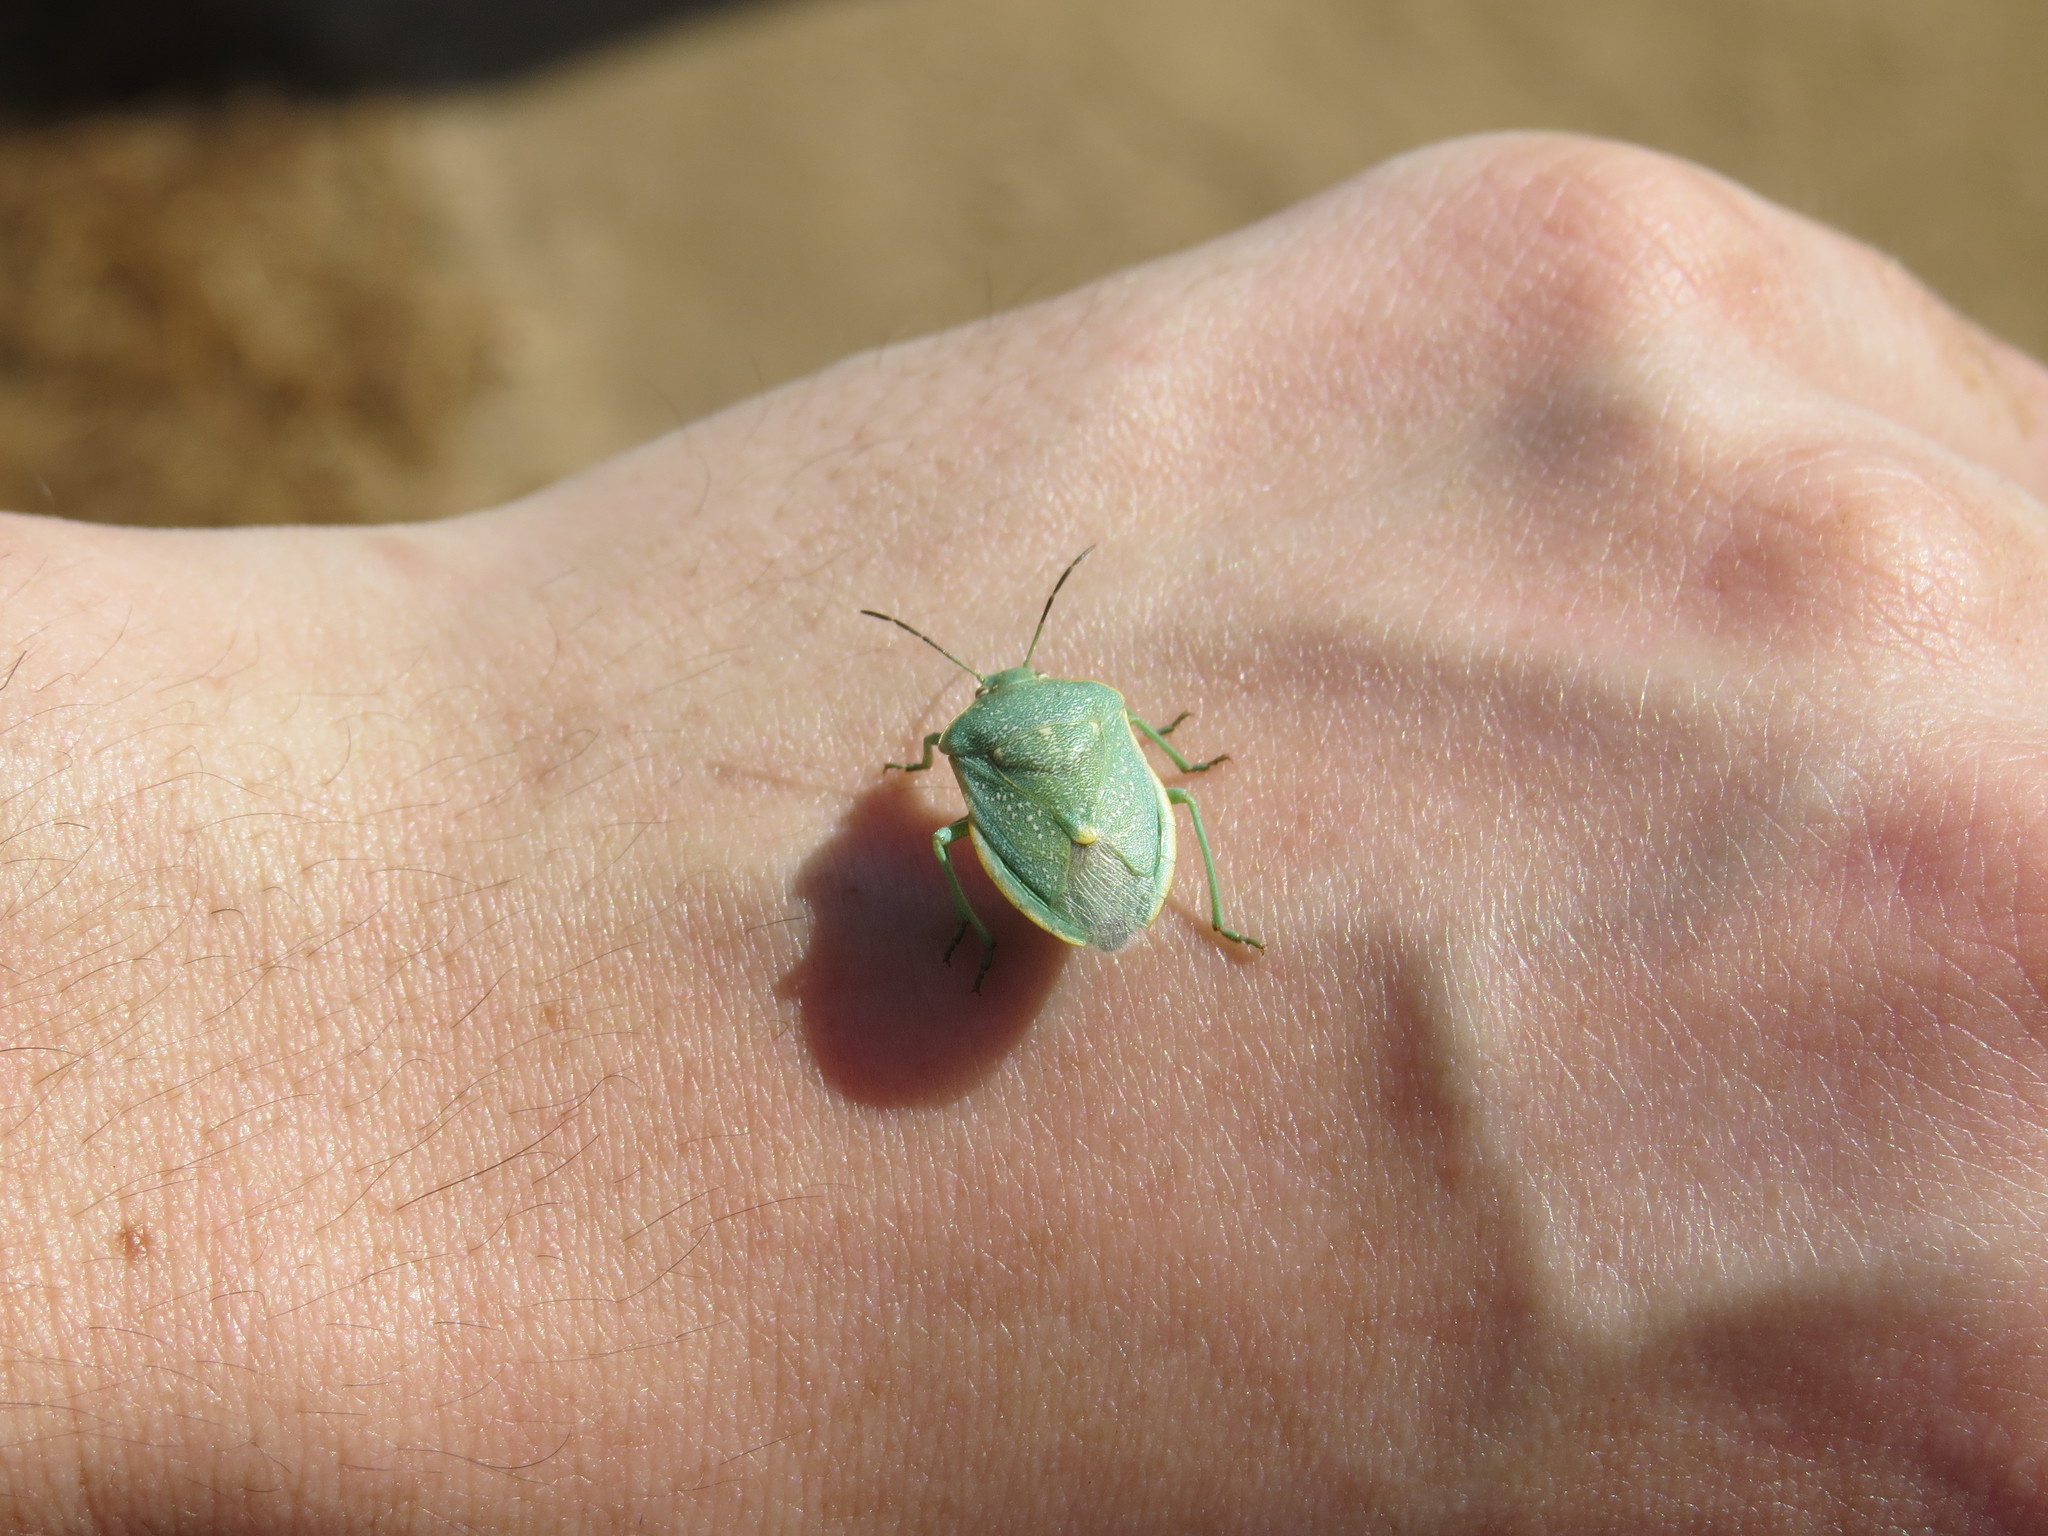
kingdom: Animalia
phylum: Arthropoda
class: Insecta
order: Hemiptera
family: Pentatomidae
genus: Chlorochroa
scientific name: Chlorochroa uhleri
